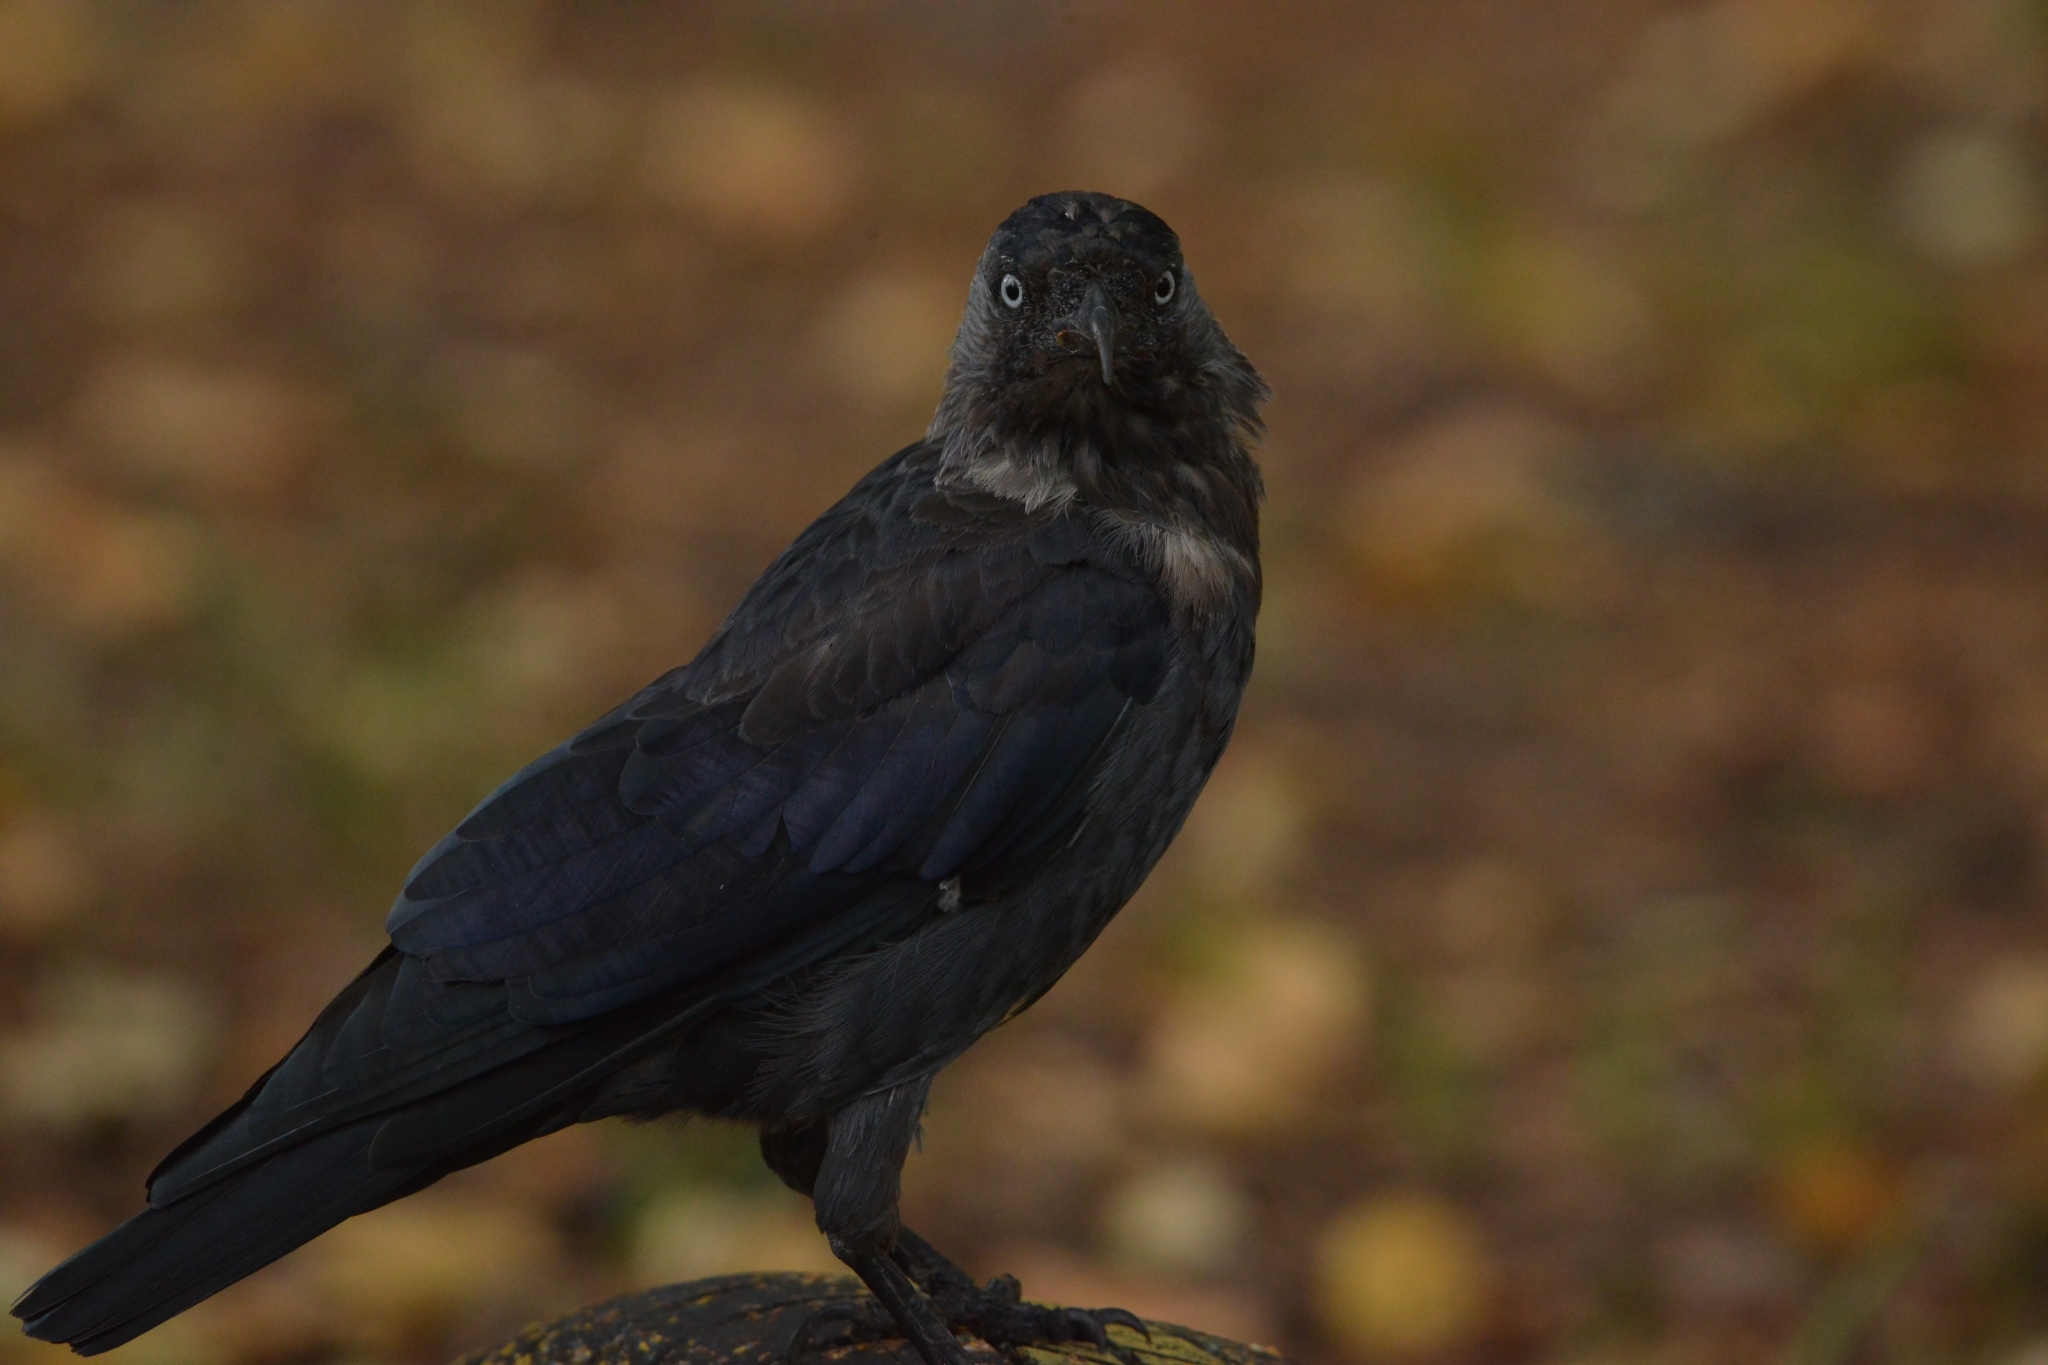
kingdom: Animalia
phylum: Chordata
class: Aves
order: Passeriformes
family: Corvidae
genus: Coloeus
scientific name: Coloeus monedula
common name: Western jackdaw
